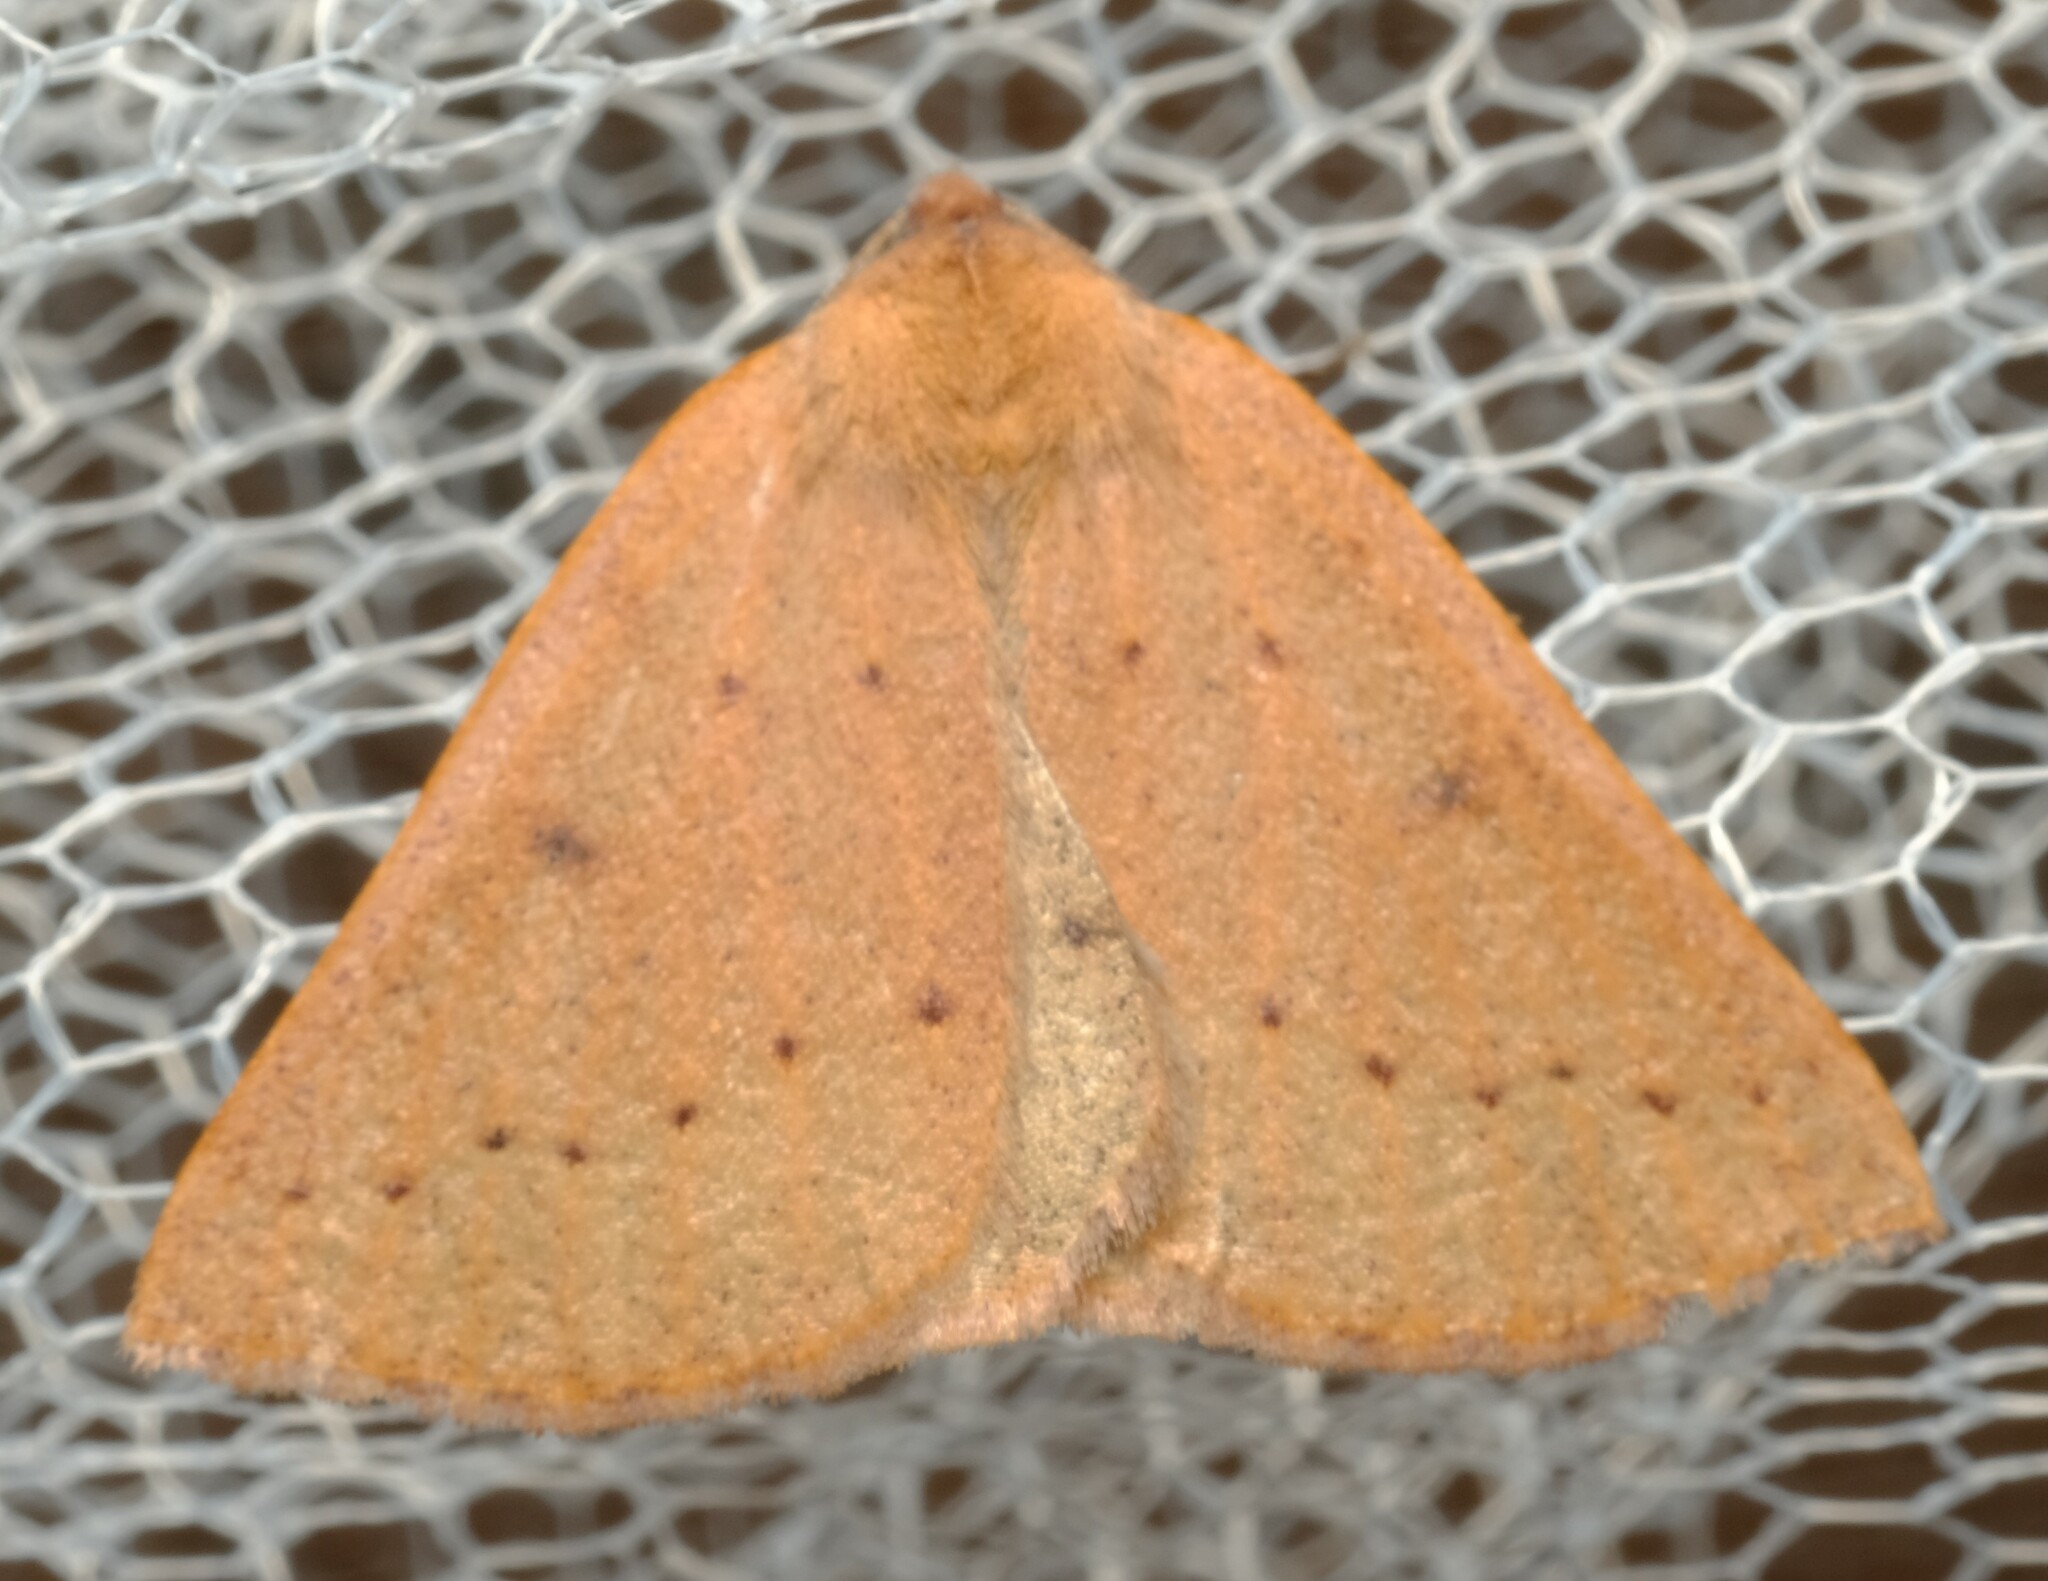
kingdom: Animalia
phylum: Arthropoda
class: Insecta
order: Lepidoptera
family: Geometridae
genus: Androchela
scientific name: Androchela milvaria
